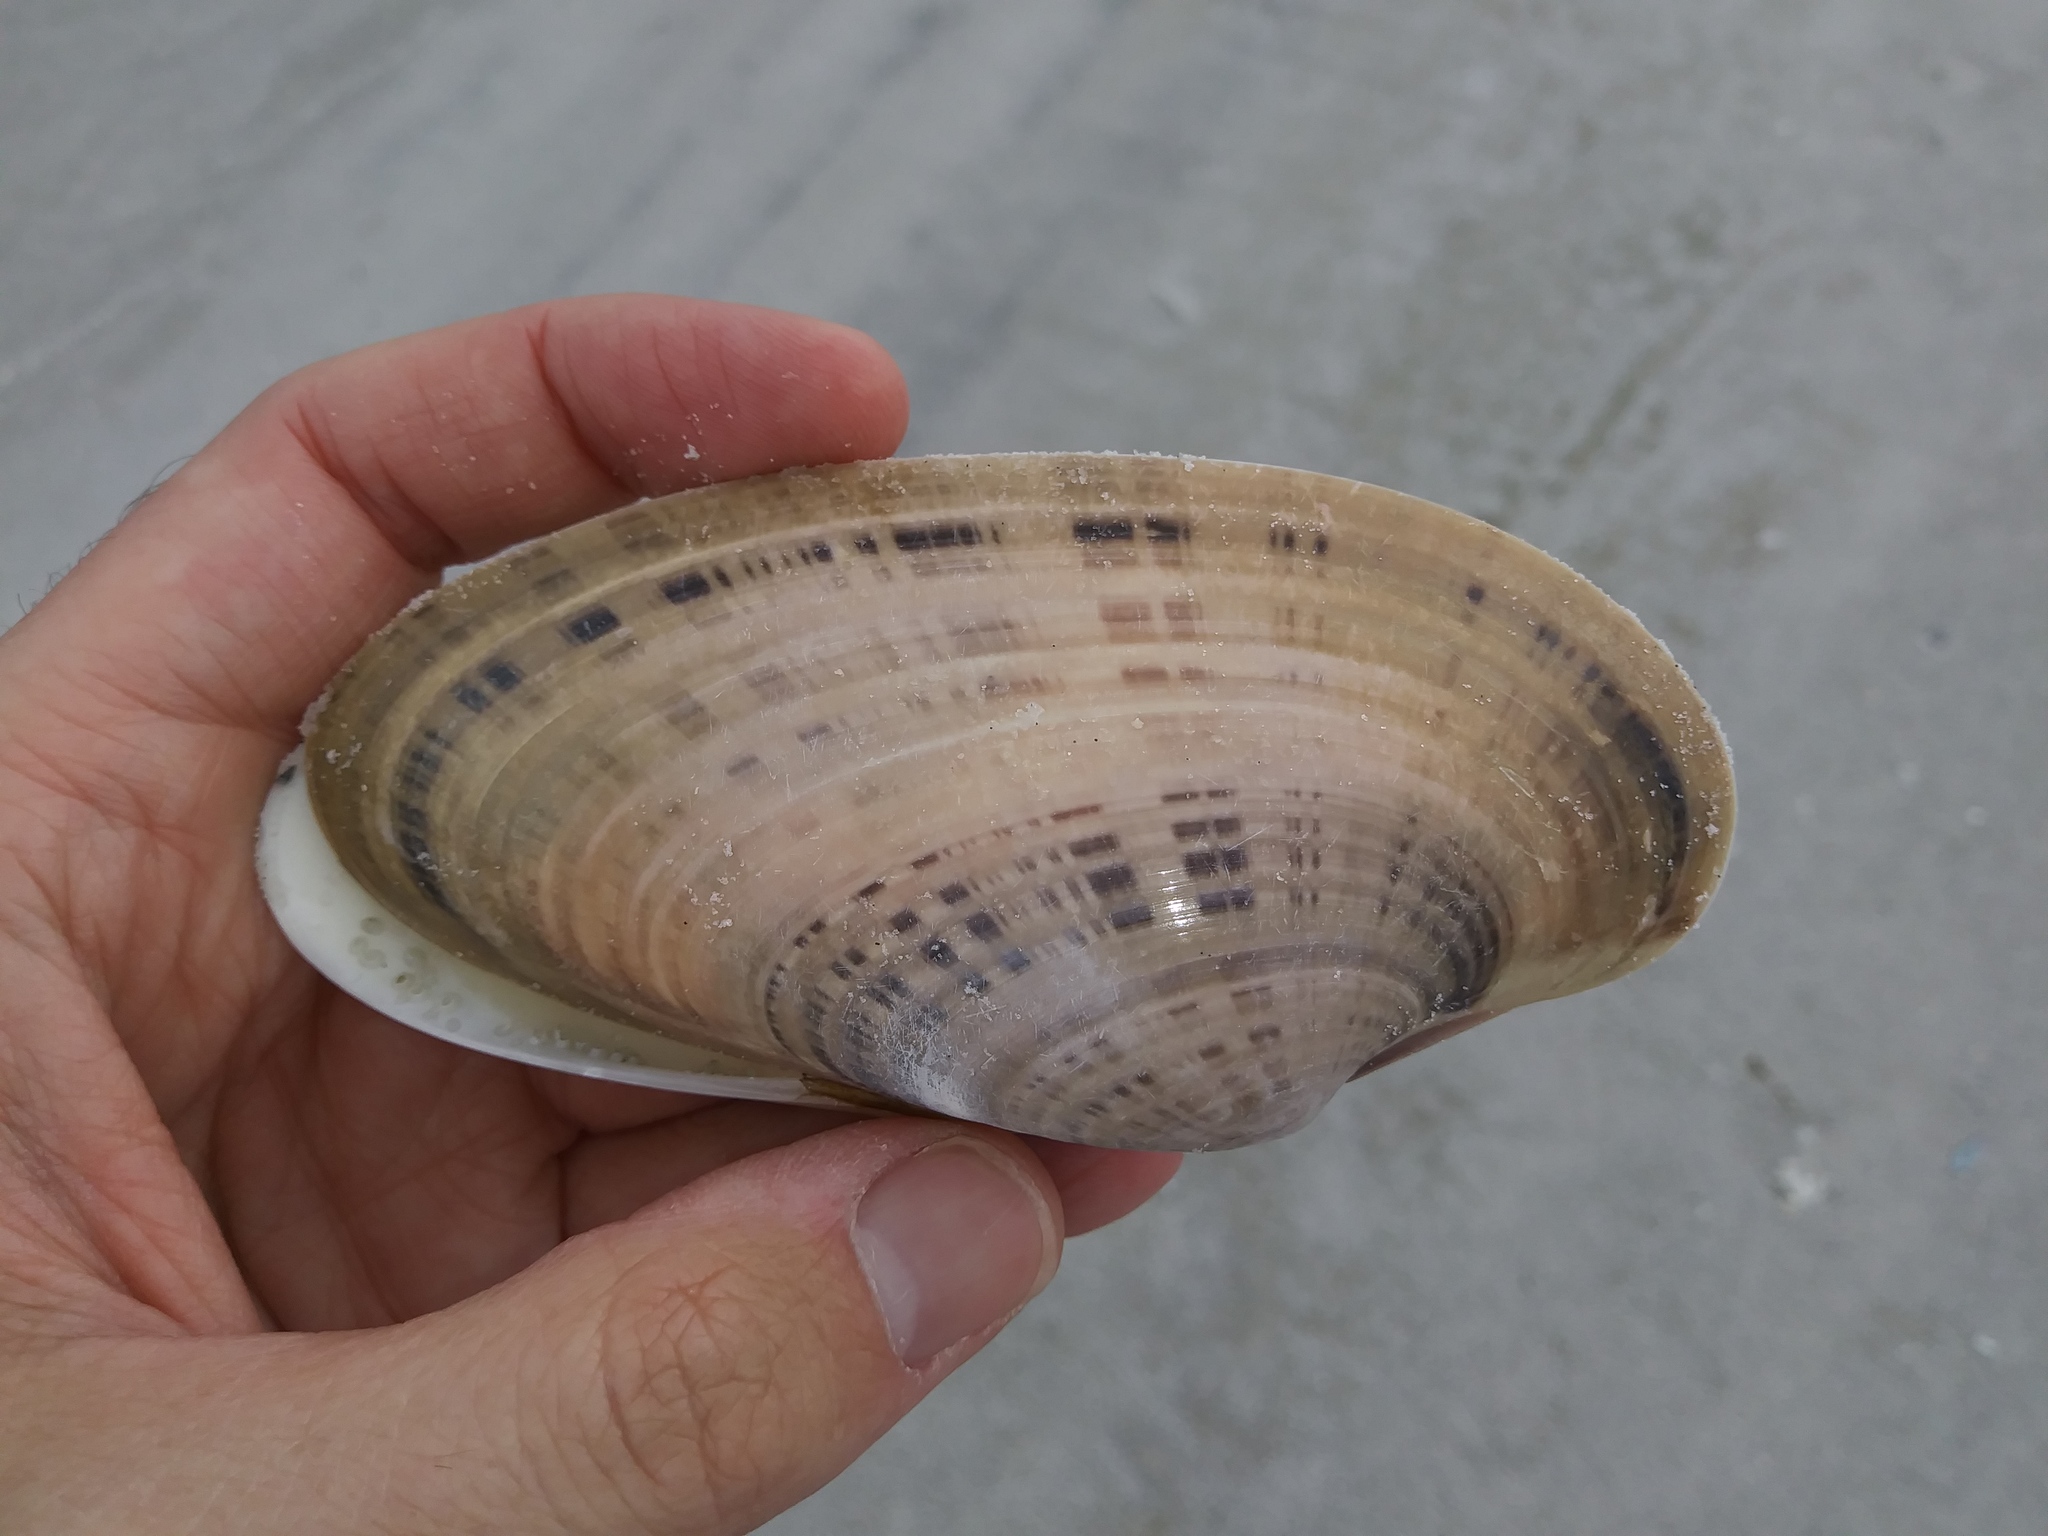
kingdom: Animalia
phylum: Mollusca
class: Bivalvia
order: Venerida
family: Veneridae
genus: Macrocallista
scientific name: Macrocallista nimbosa
